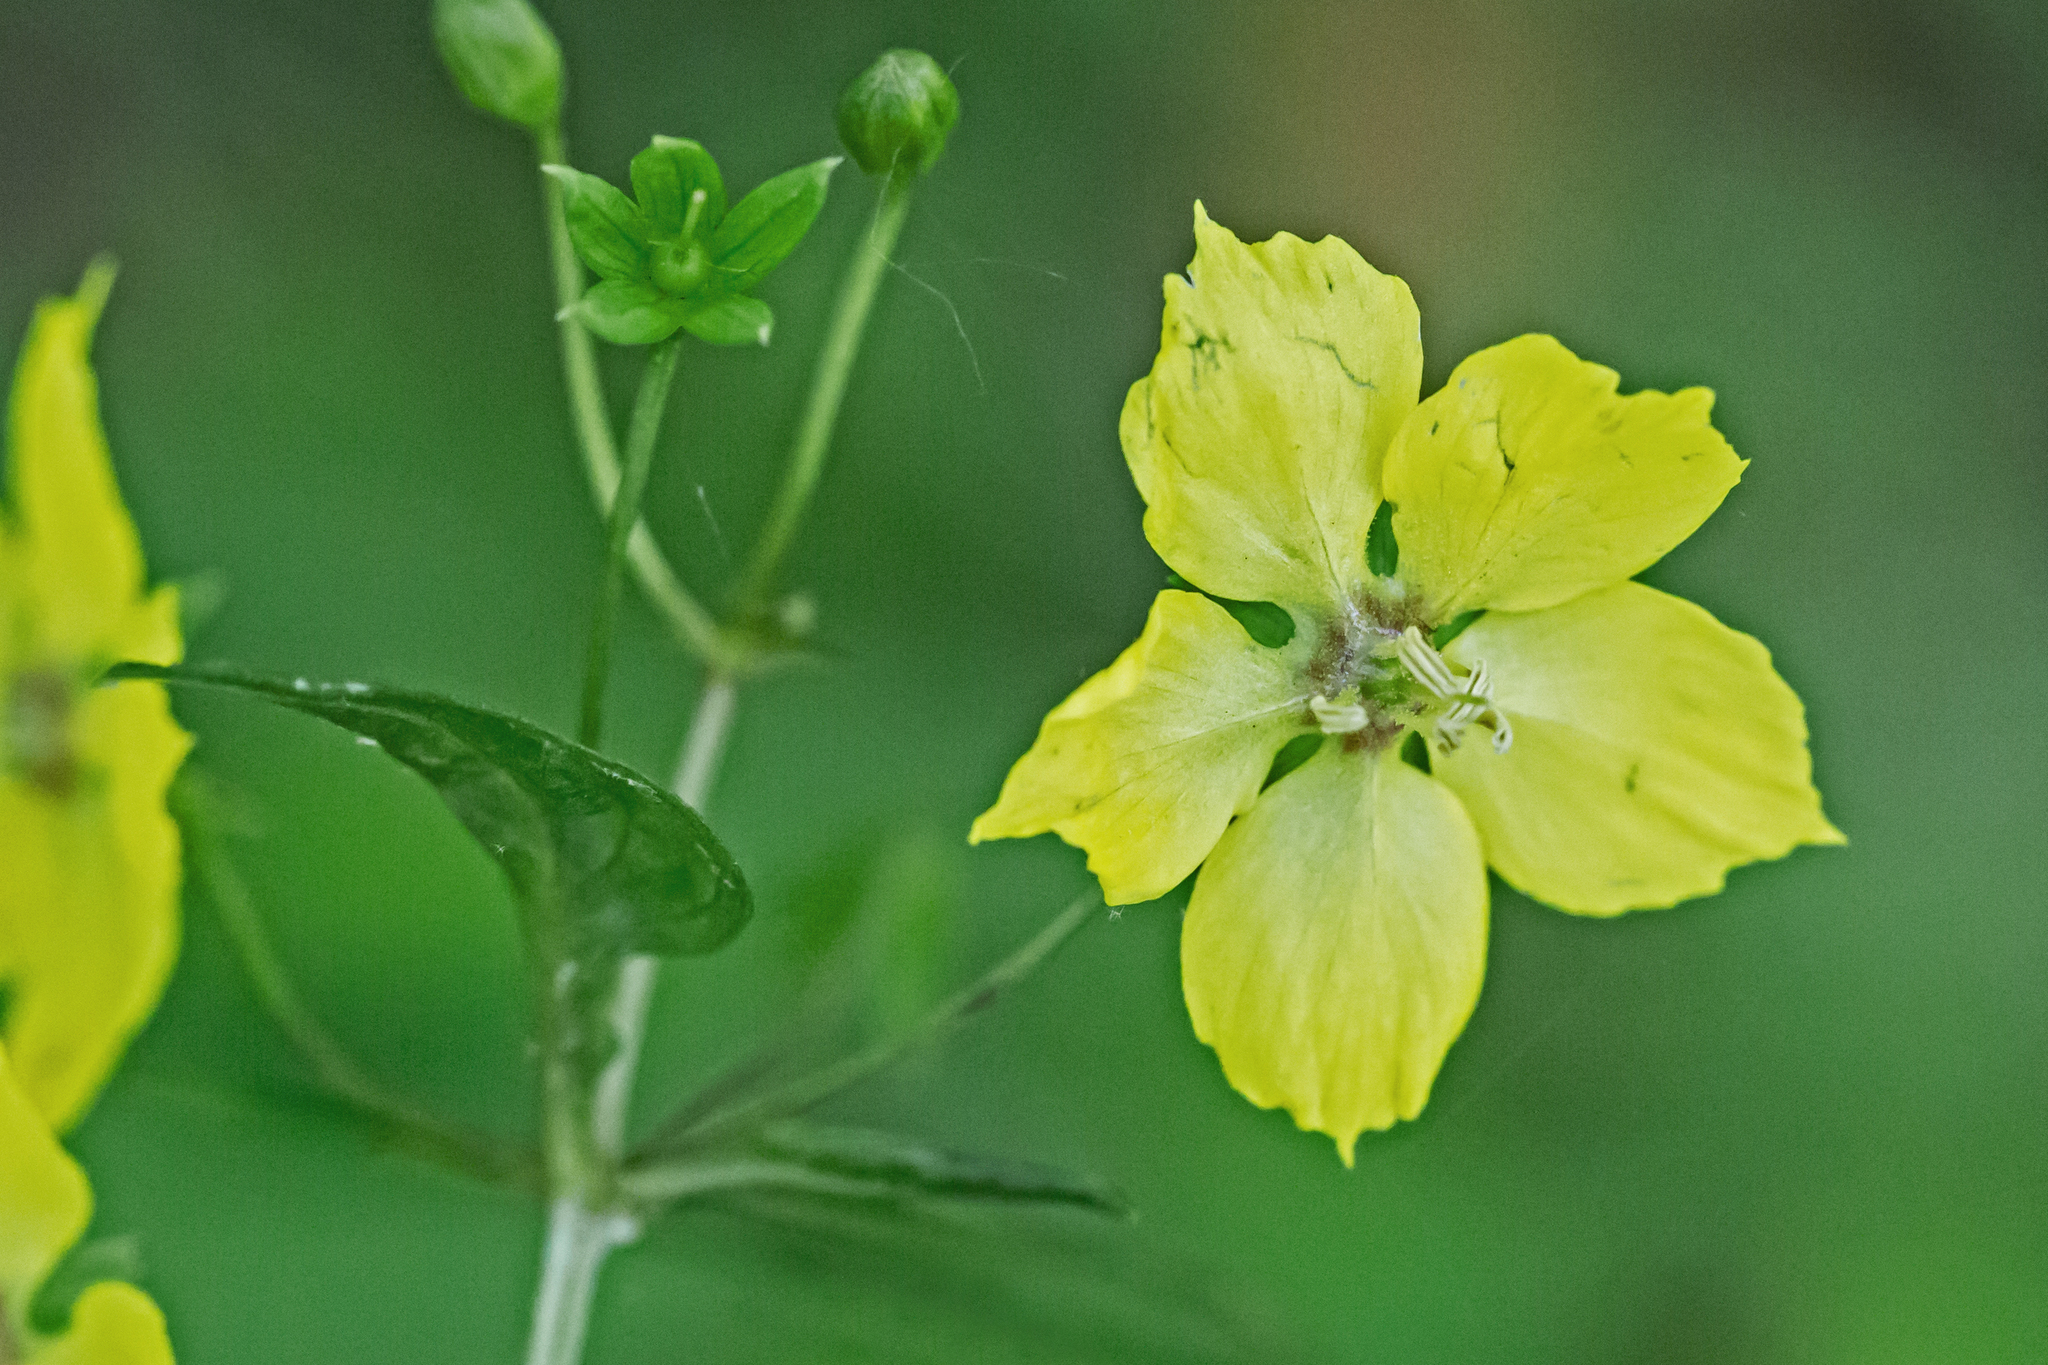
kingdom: Plantae
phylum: Tracheophyta
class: Magnoliopsida
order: Ericales
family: Primulaceae
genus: Lysimachia
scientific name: Lysimachia ciliata
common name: Fringed loosestrife
